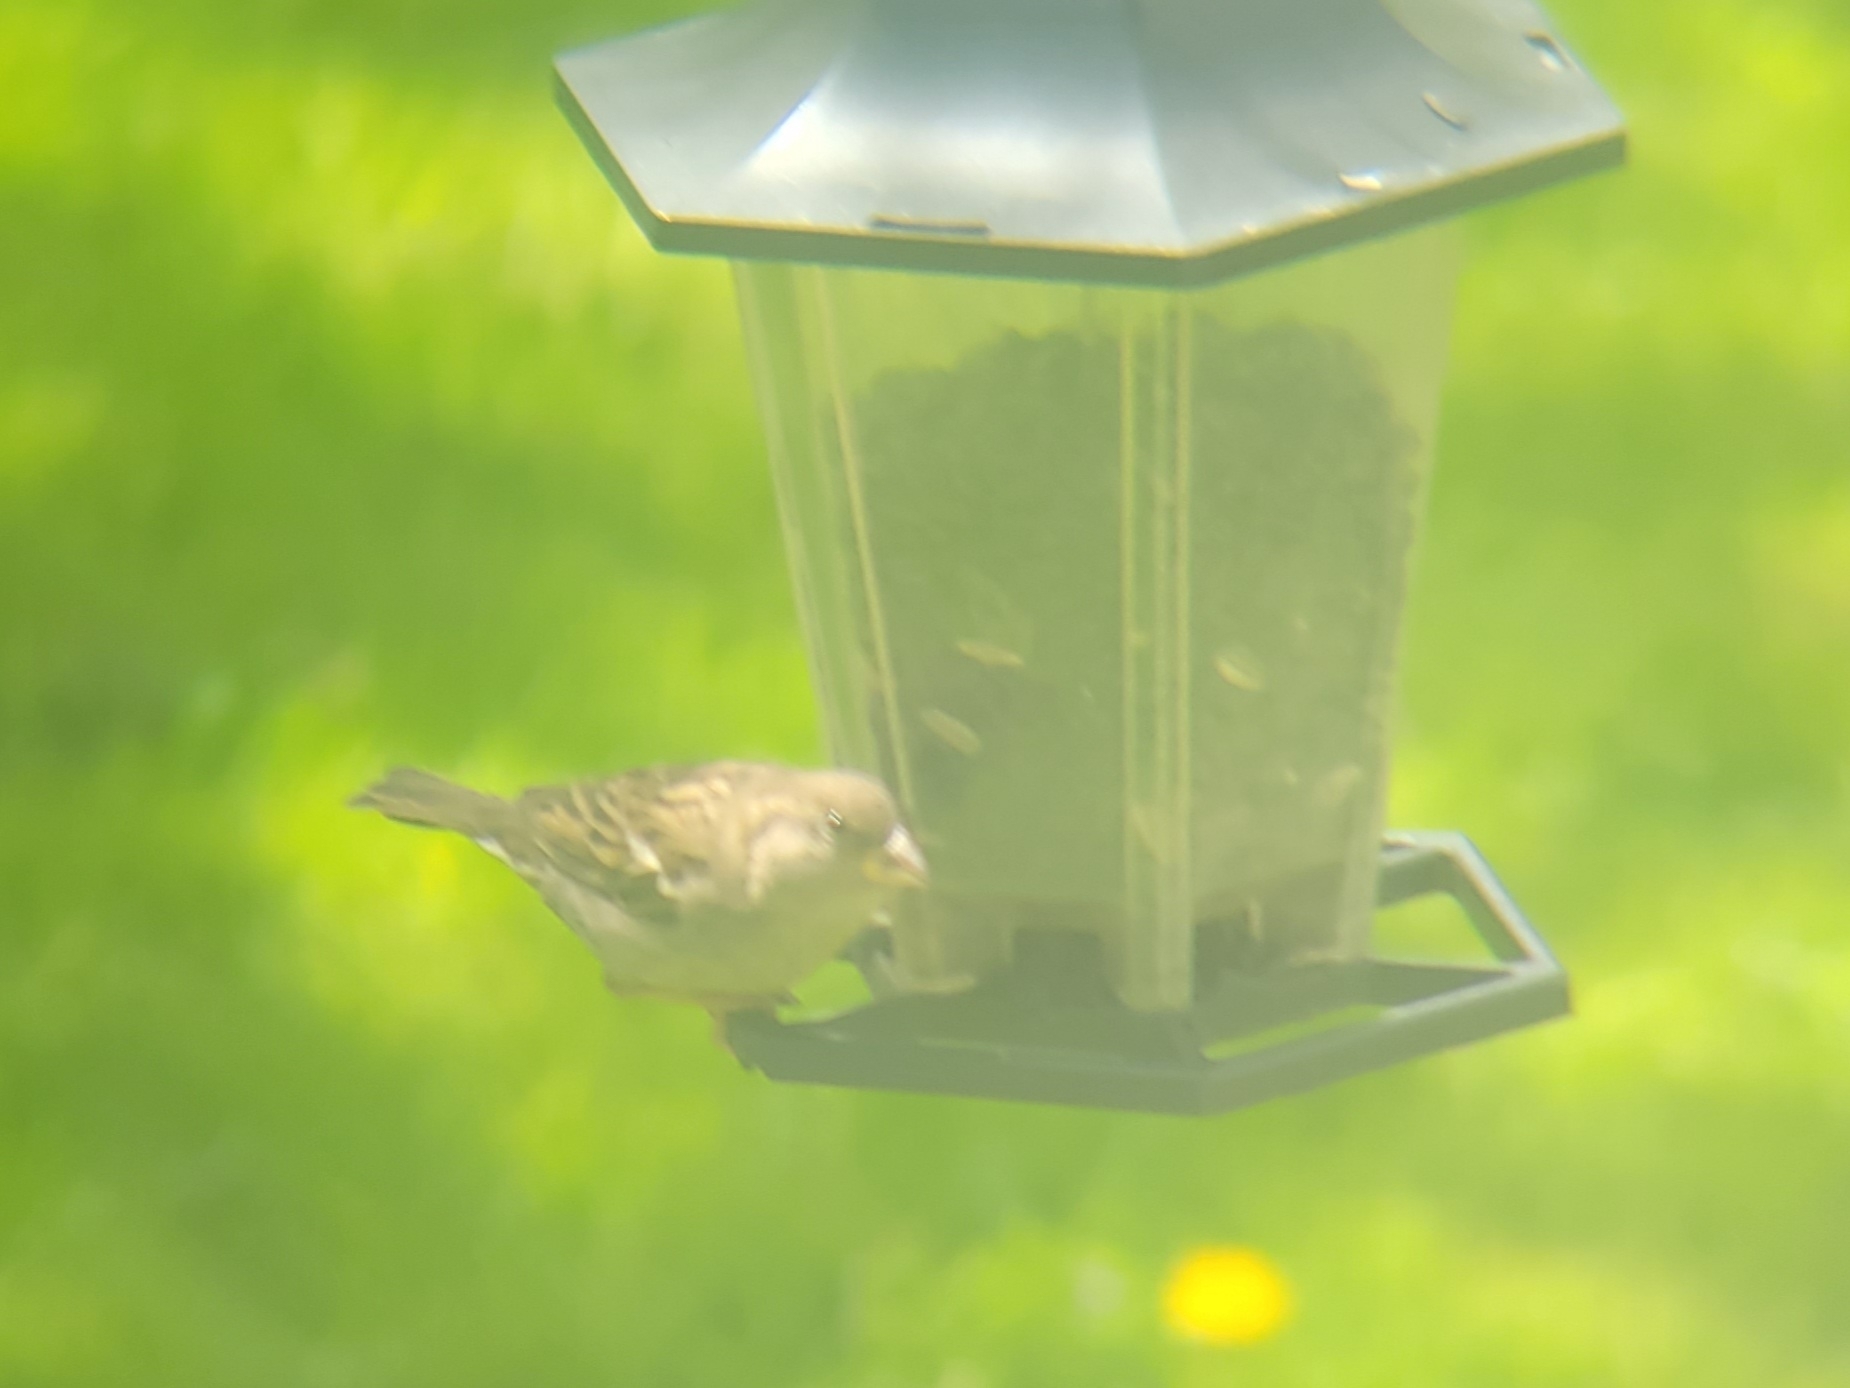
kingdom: Animalia
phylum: Chordata
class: Aves
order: Passeriformes
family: Passeridae
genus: Passer
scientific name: Passer domesticus
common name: House sparrow
